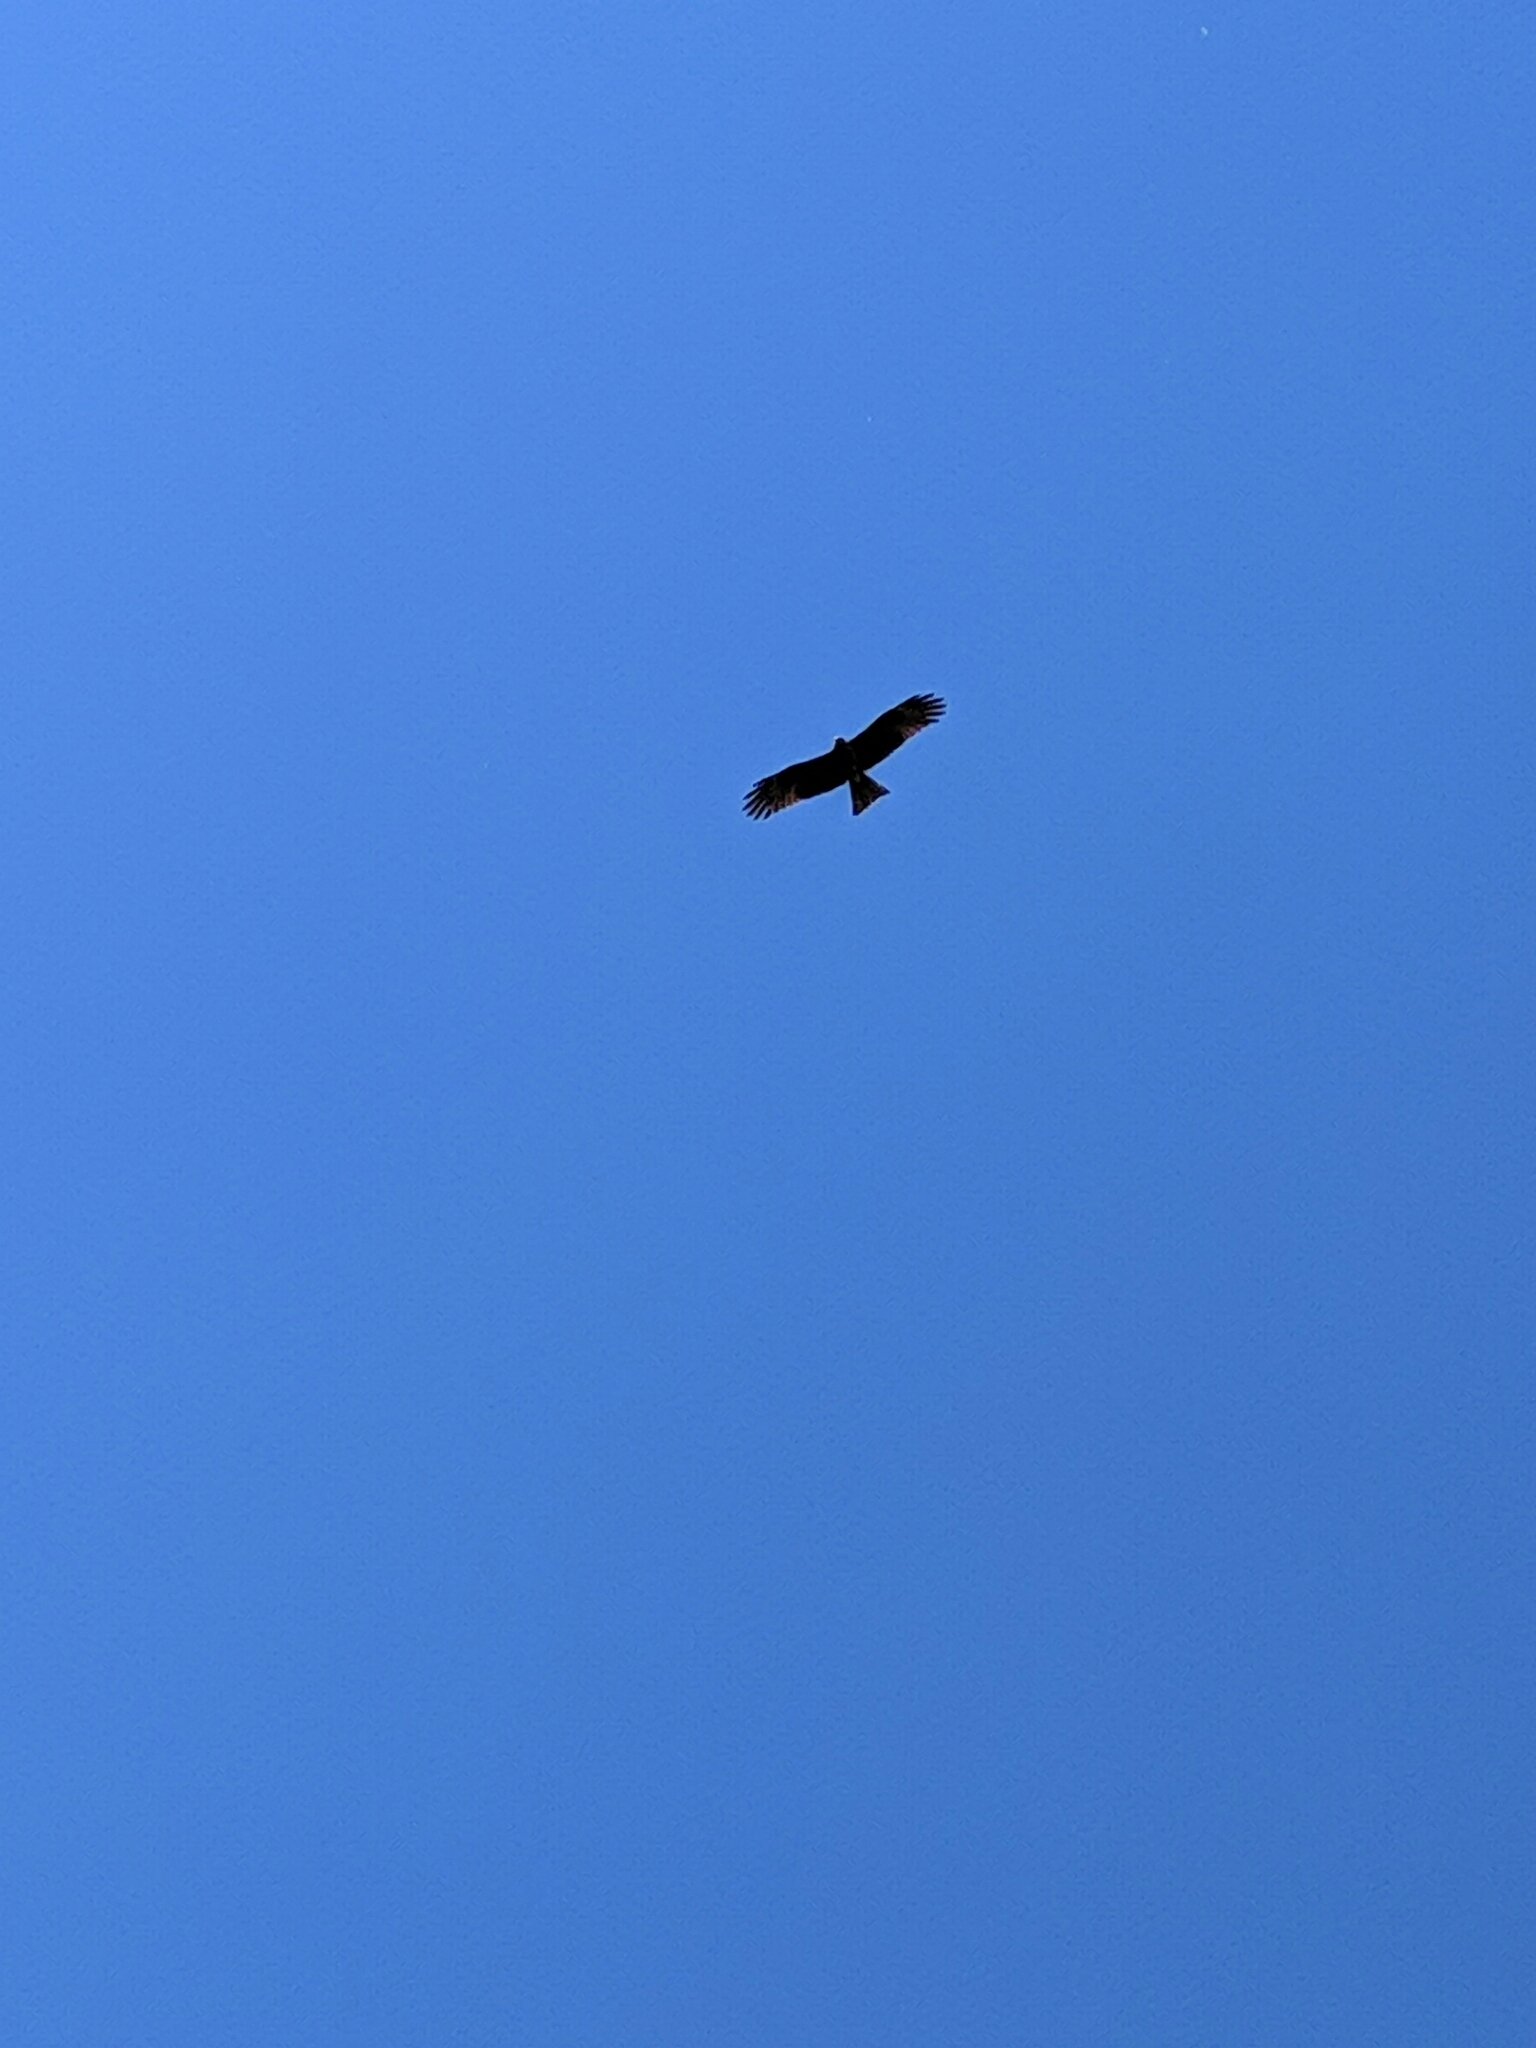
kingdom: Animalia
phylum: Chordata
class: Aves
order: Accipitriformes
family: Accipitridae
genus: Milvus
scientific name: Milvus migrans
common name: Black kite
